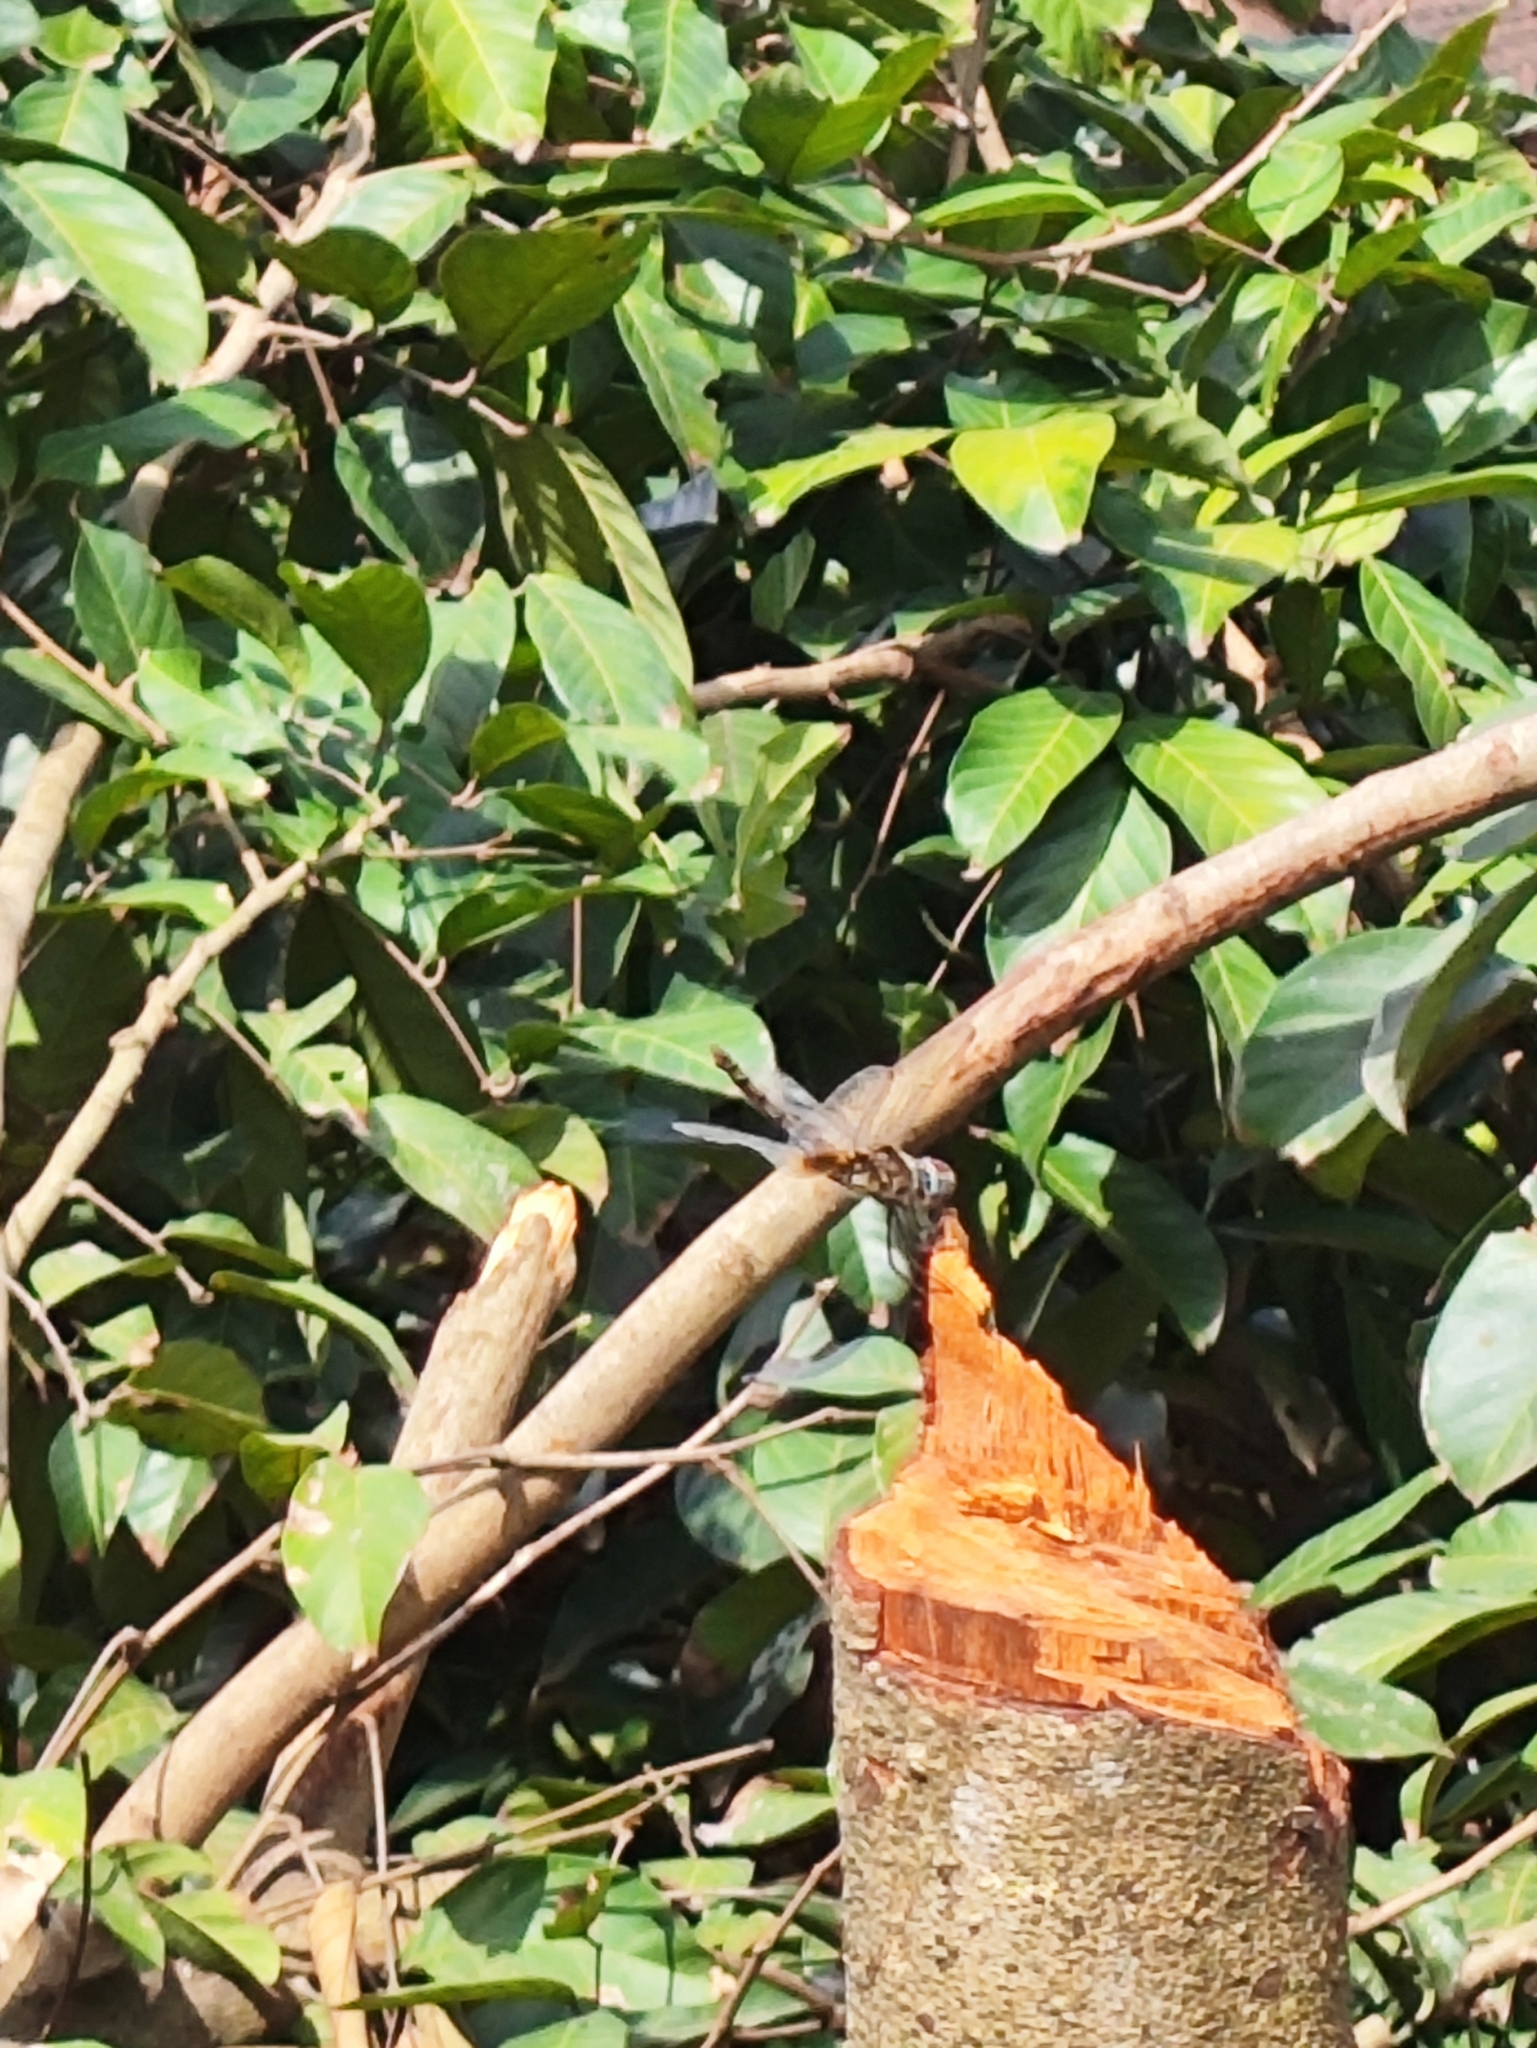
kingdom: Animalia
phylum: Arthropoda
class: Insecta
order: Odonata
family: Libellulidae
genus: Urothemis
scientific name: Urothemis signata
